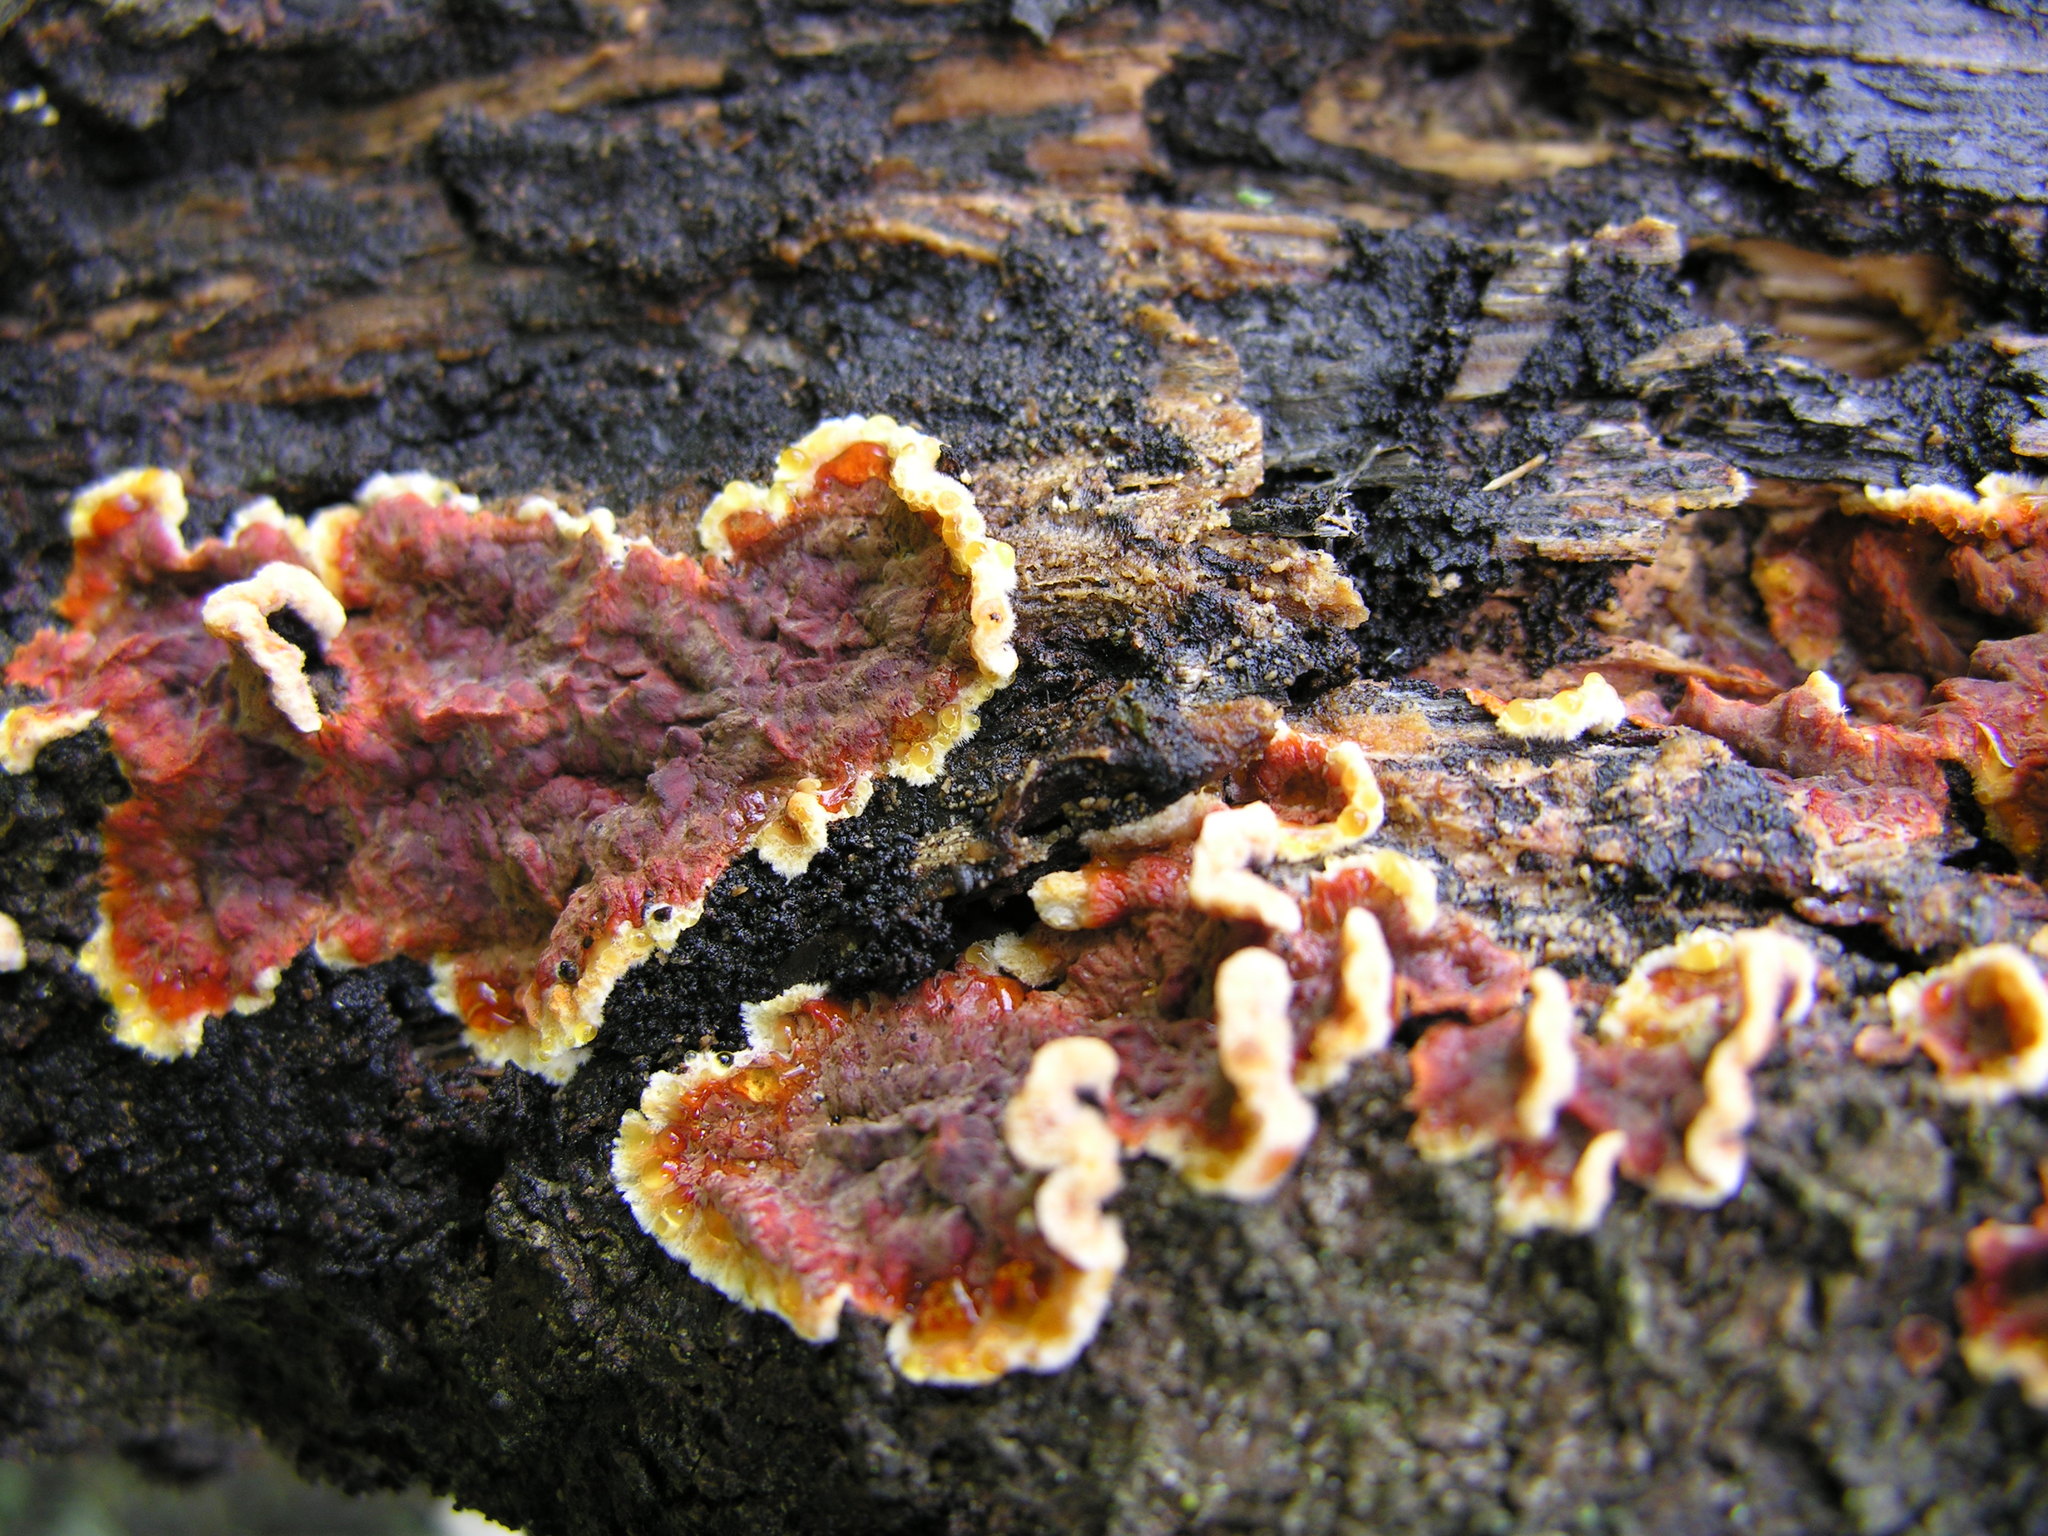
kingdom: Fungi
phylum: Basidiomycota
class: Agaricomycetes
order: Corticiales
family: Punctulariaceae
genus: Punctularia
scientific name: Punctularia strigosozonata
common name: White-rot fungus
